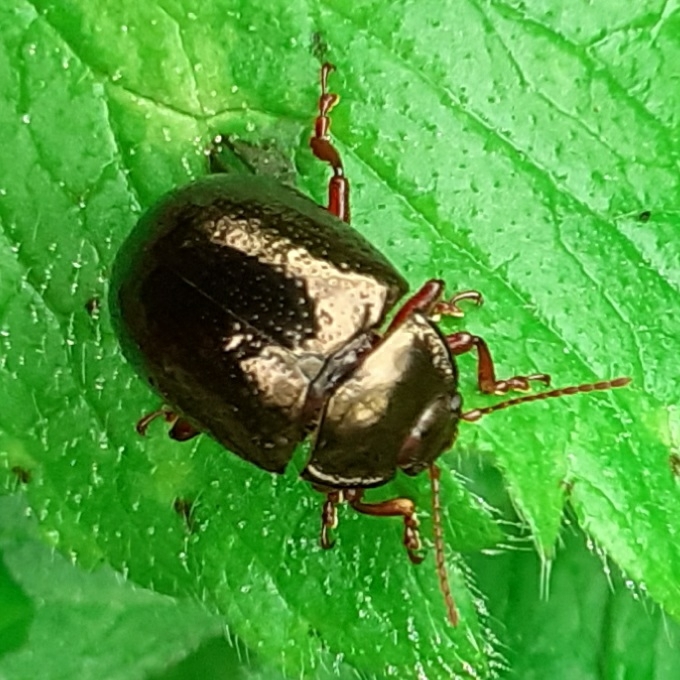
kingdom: Animalia
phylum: Arthropoda
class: Insecta
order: Coleoptera
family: Chrysomelidae
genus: Chrysolina
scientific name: Chrysolina bankii
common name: Leaf beetle
